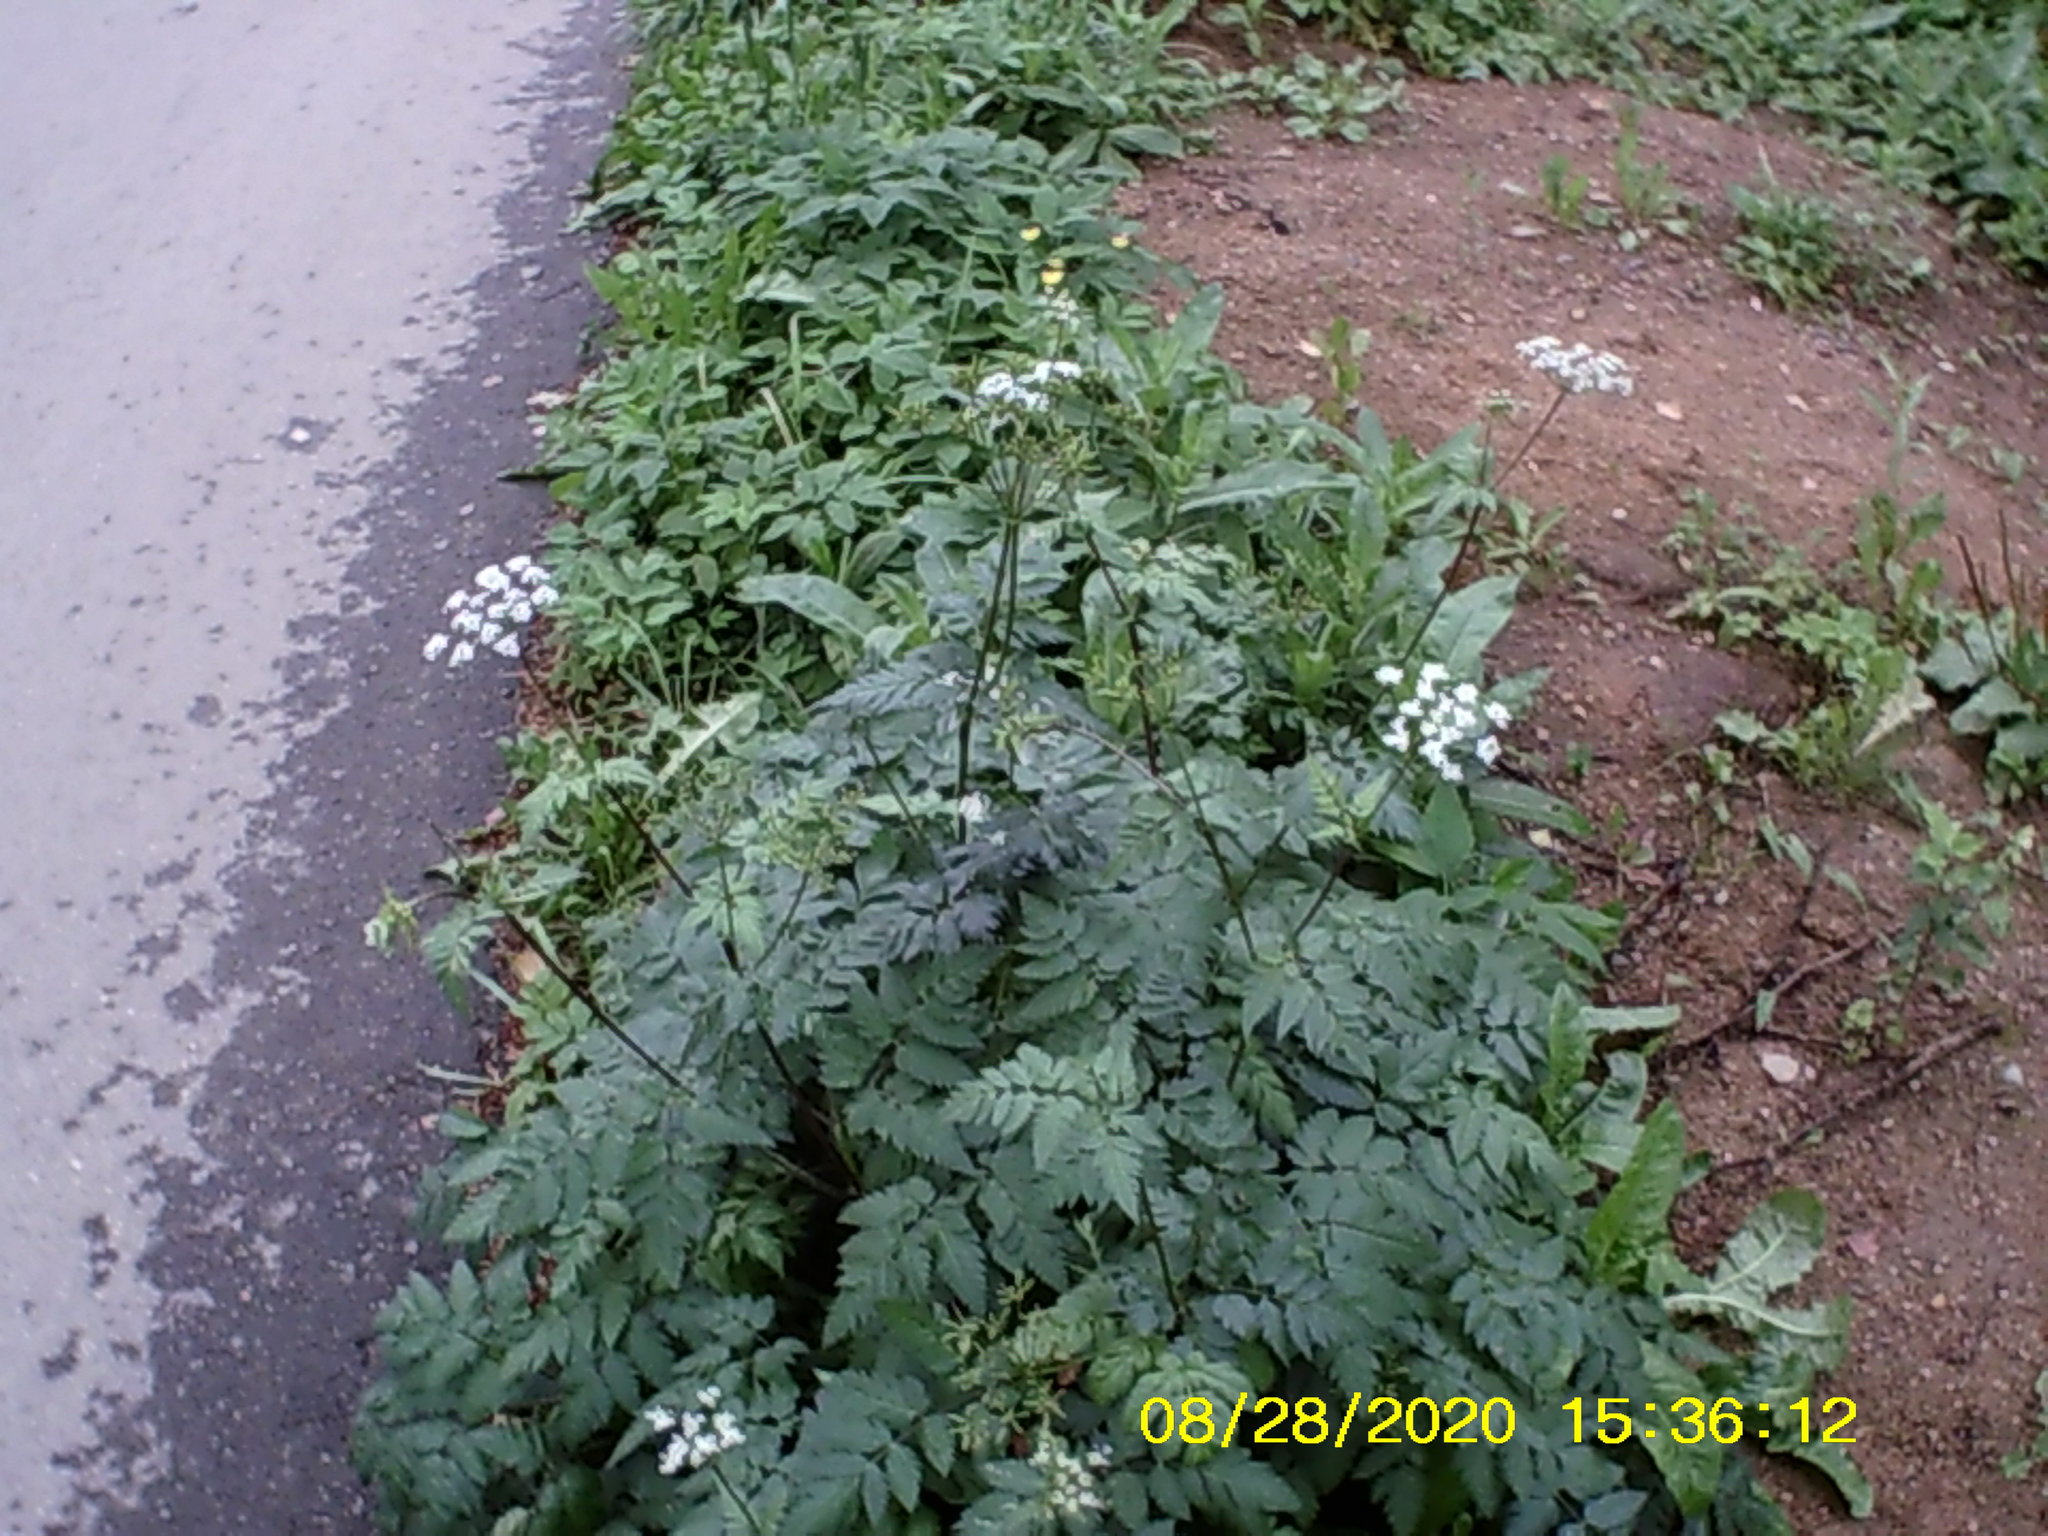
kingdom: Plantae
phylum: Tracheophyta
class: Magnoliopsida
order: Apiales
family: Apiaceae
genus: Chaerophyllum
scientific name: Chaerophyllum aureum
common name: Golden chervil
